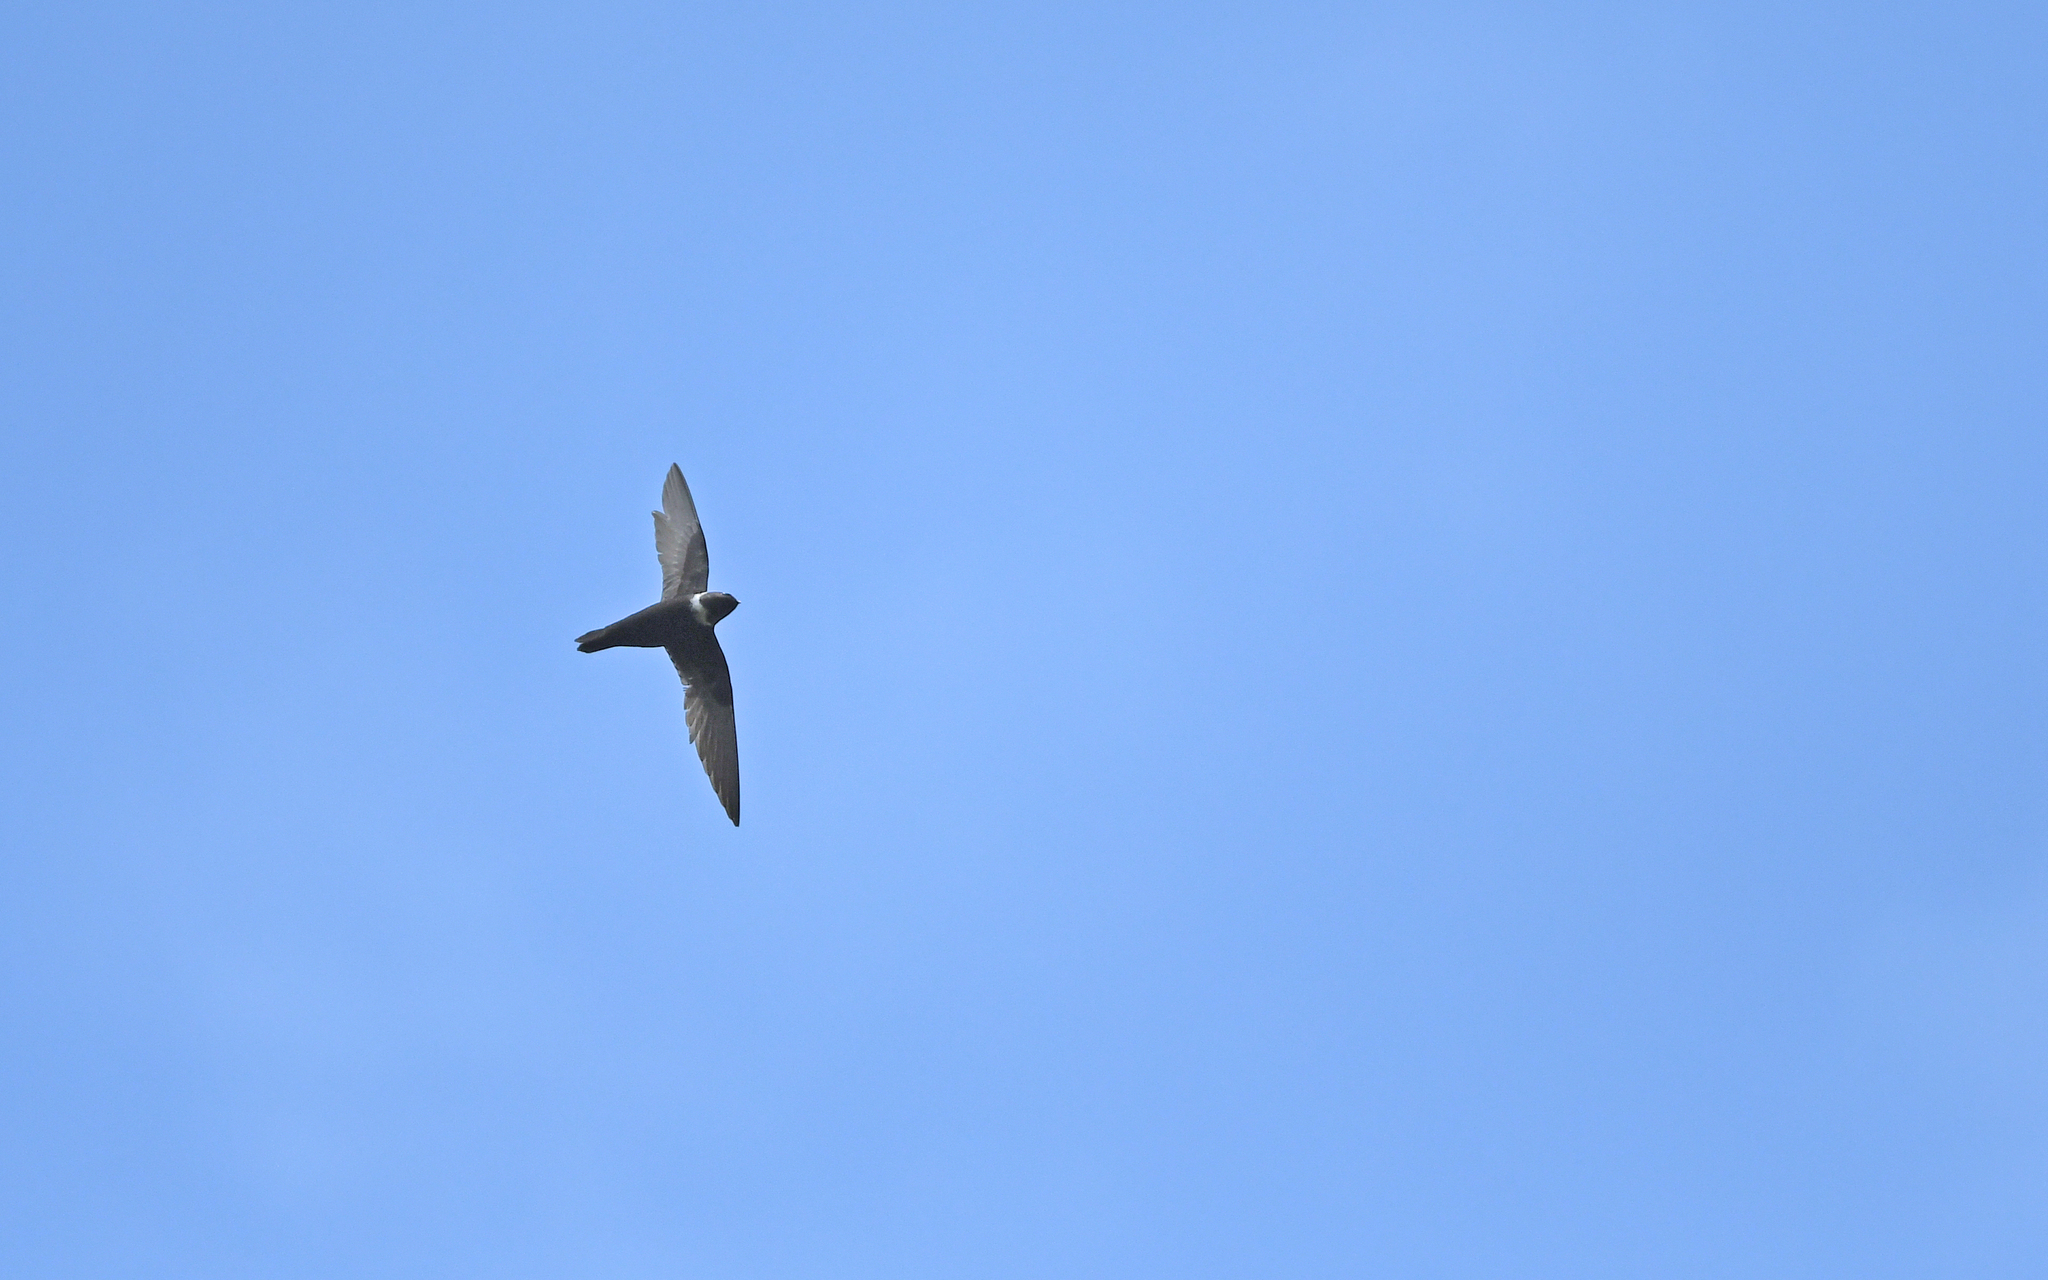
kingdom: Animalia
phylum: Chordata
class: Aves
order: Apodiformes
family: Apodidae
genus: Streptoprocne
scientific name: Streptoprocne zonaris
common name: White-collared swift
